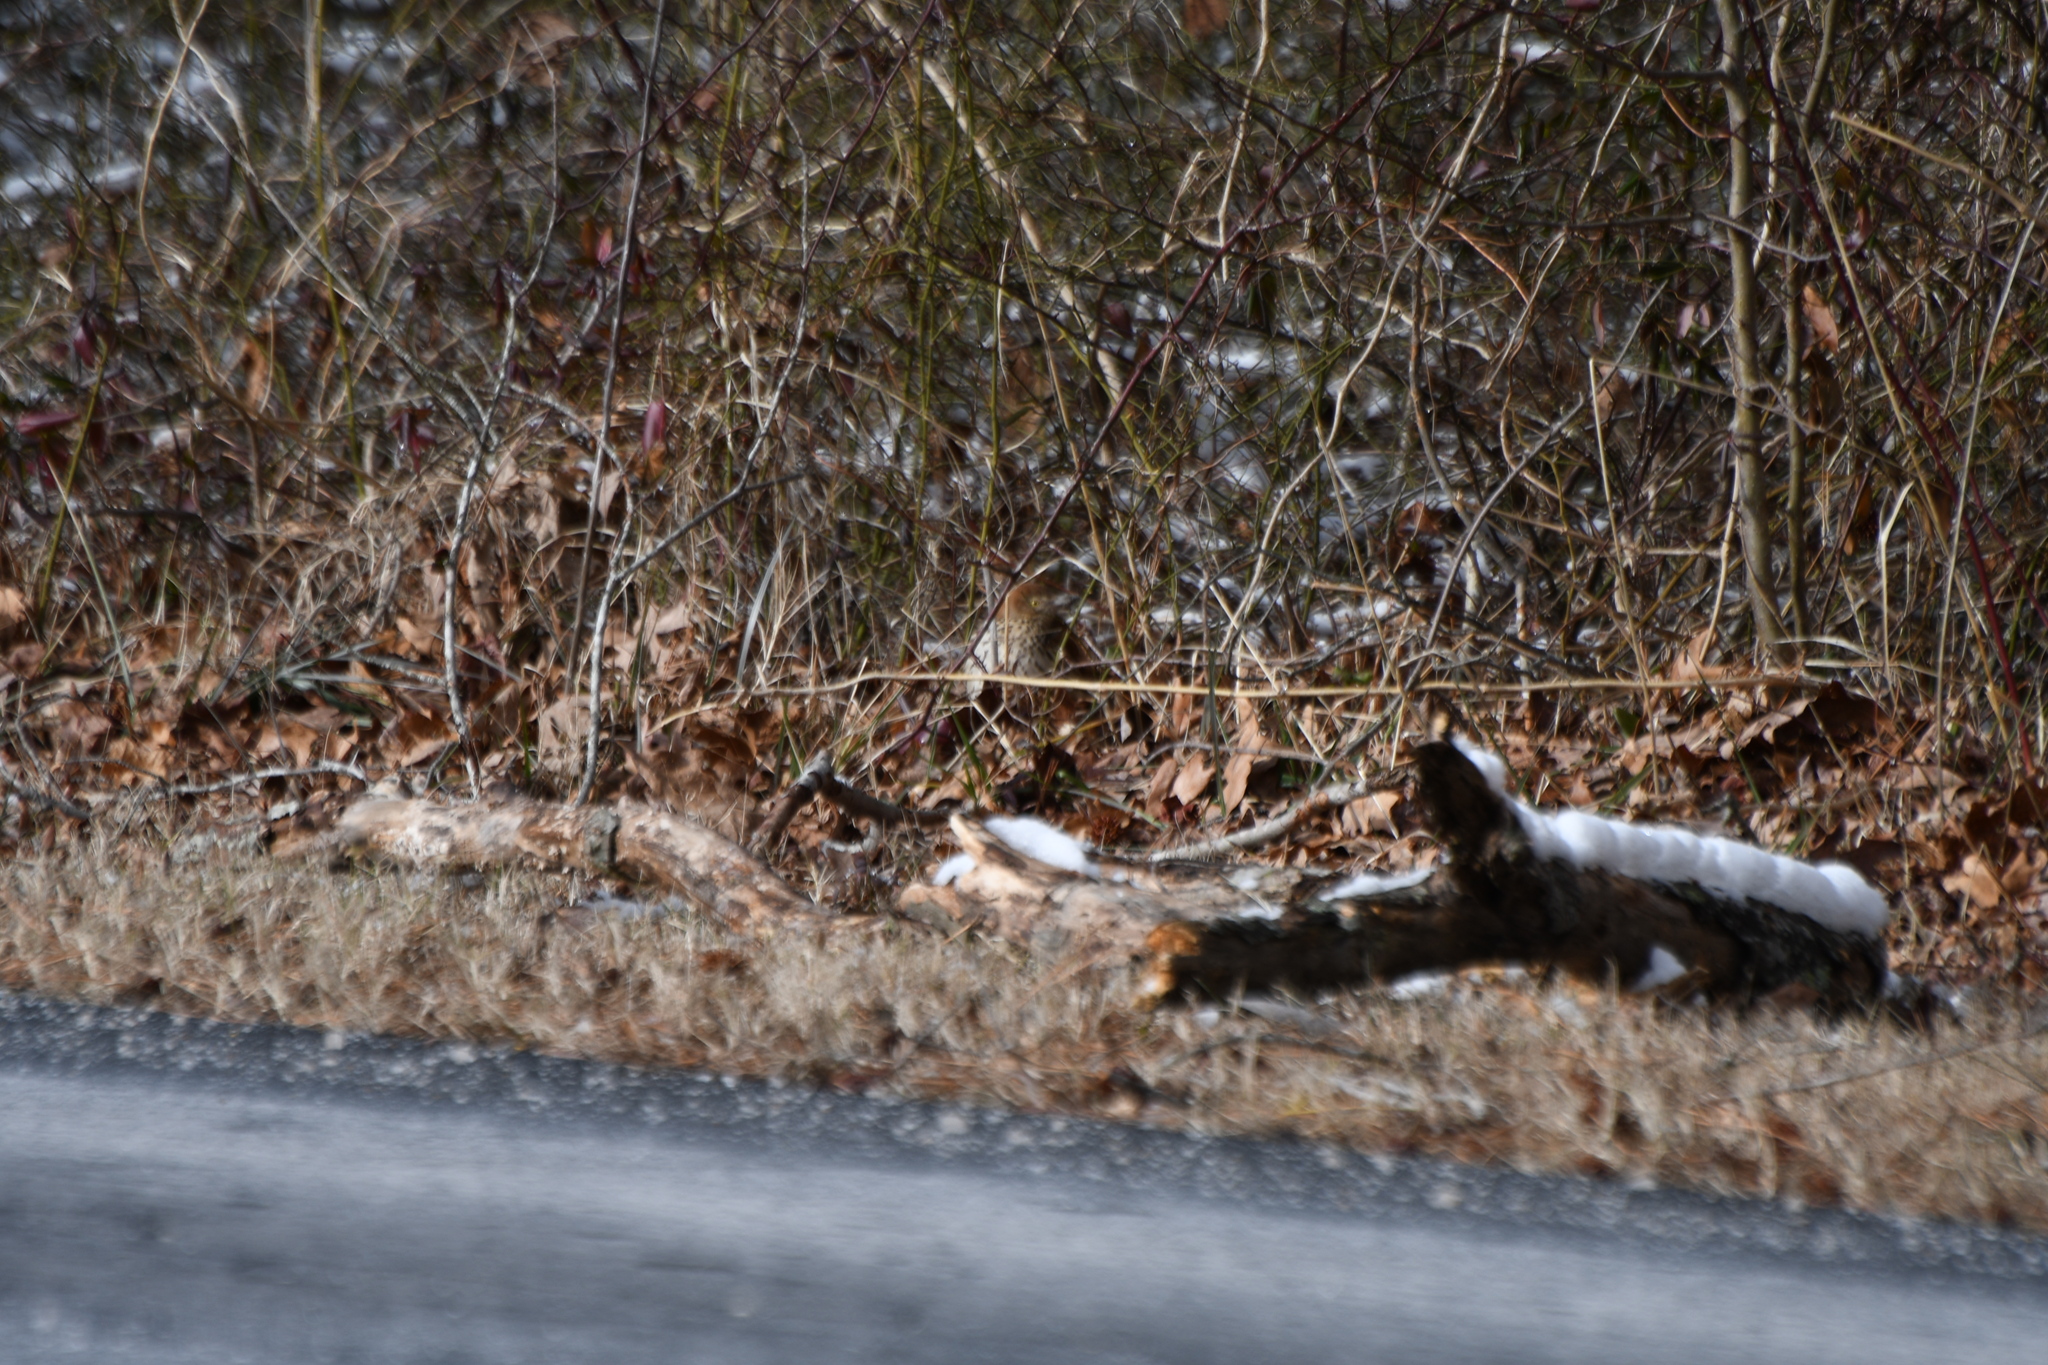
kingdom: Animalia
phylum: Chordata
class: Aves
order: Passeriformes
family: Mimidae
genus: Toxostoma
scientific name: Toxostoma rufum
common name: Brown thrasher
